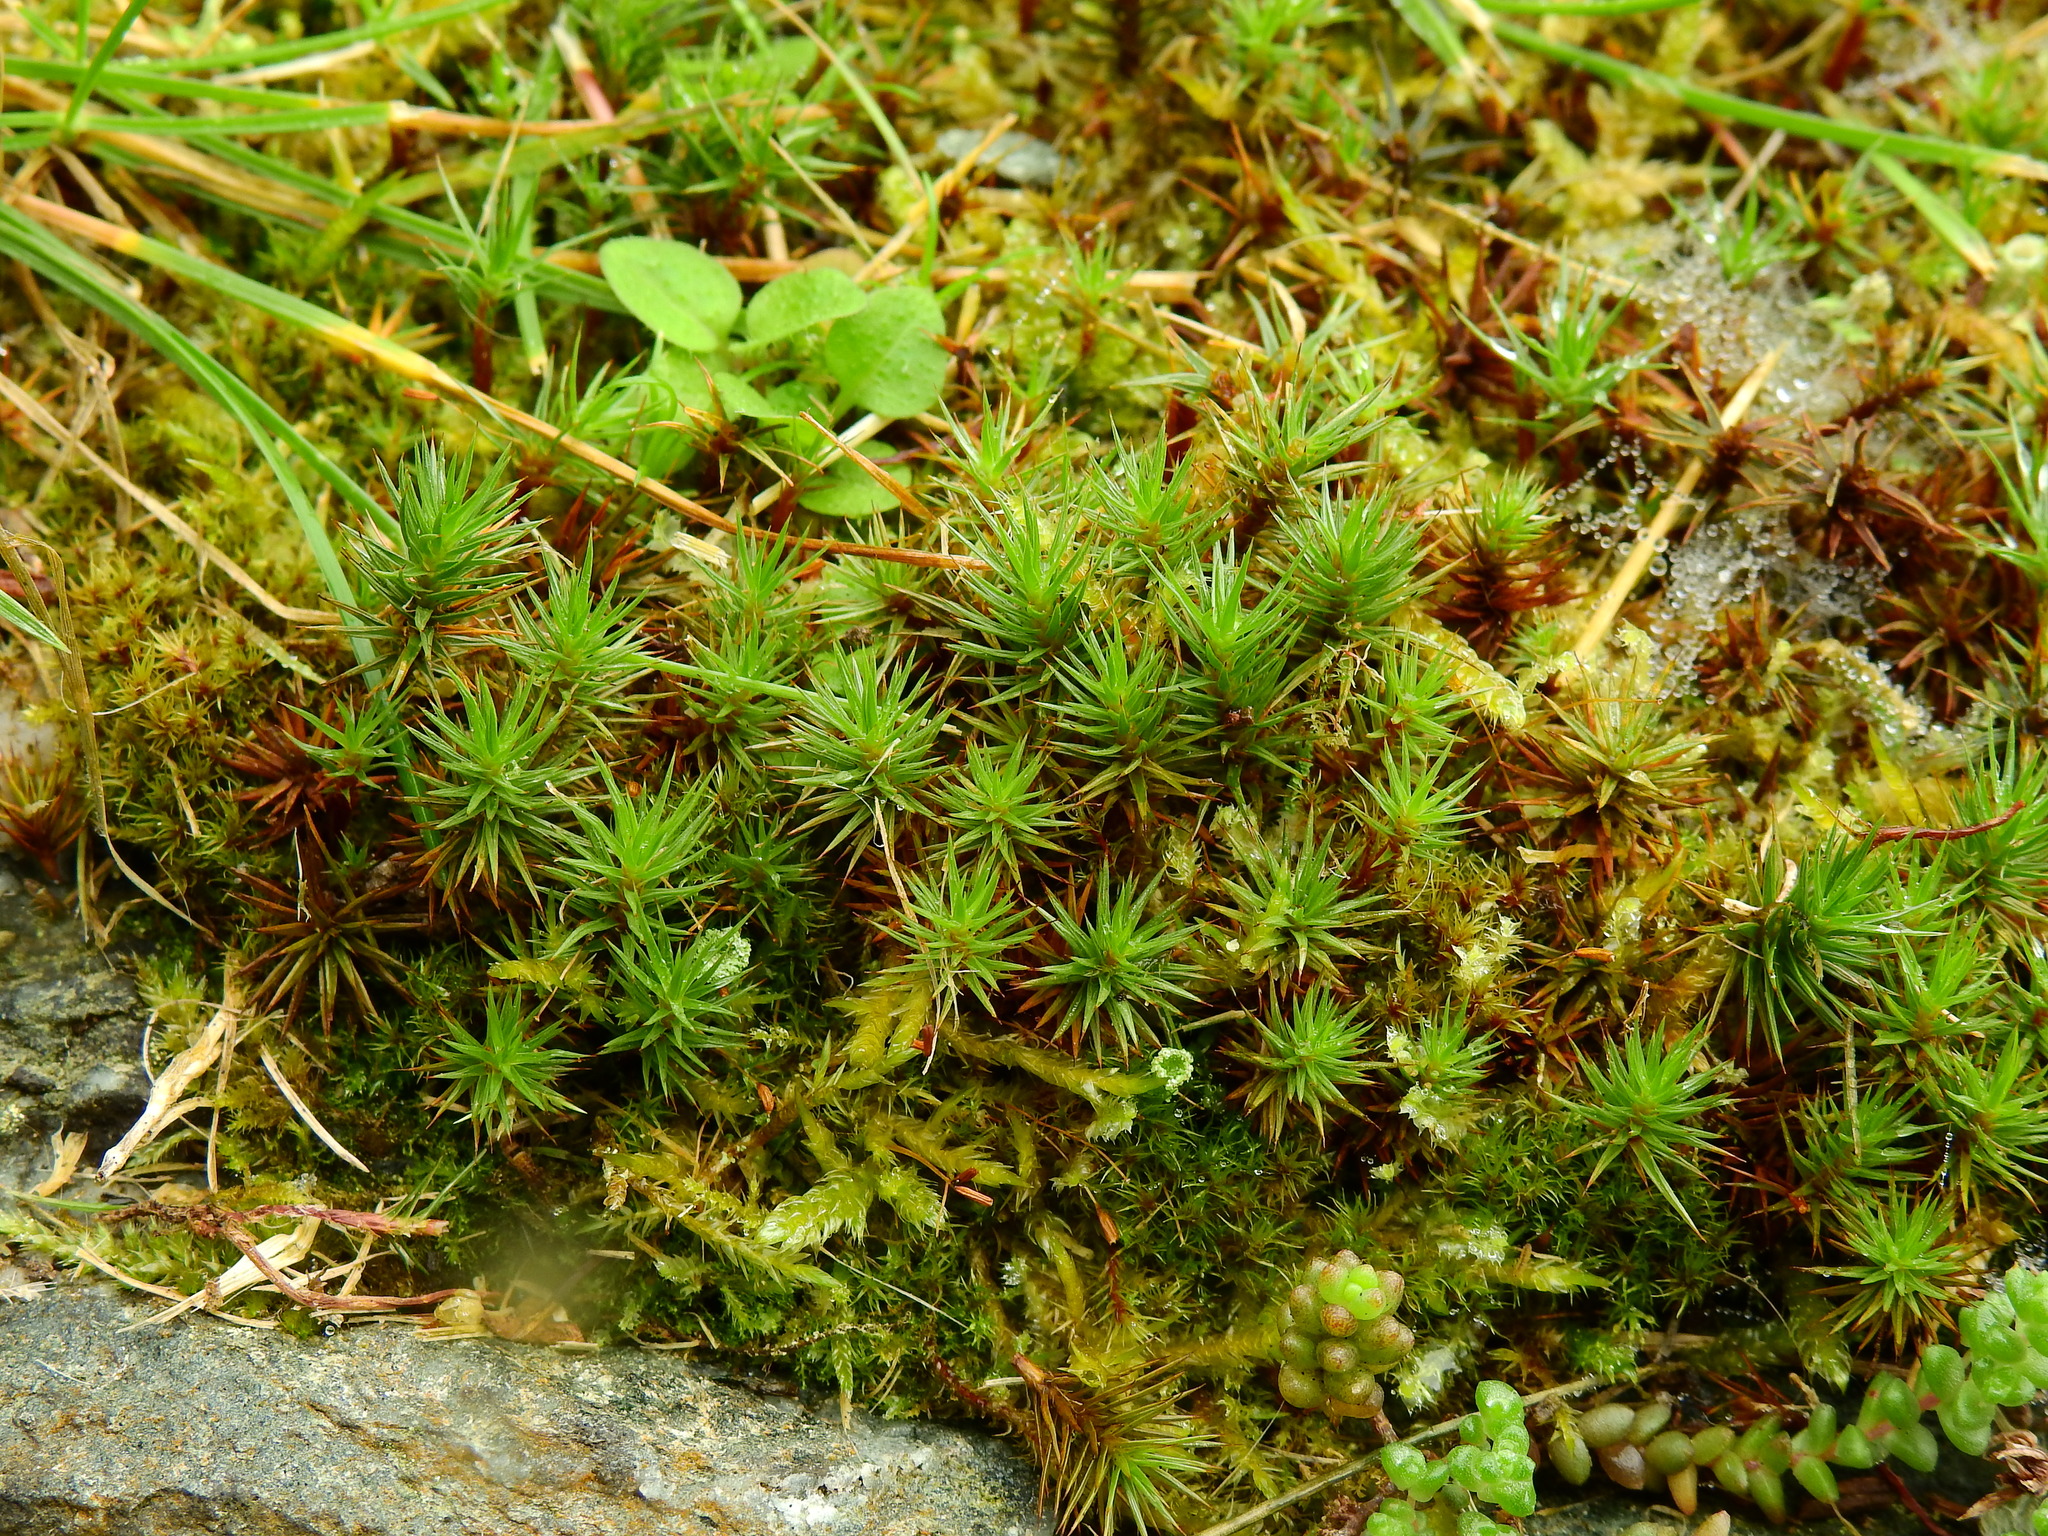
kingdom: Plantae
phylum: Bryophyta
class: Polytrichopsida
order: Polytrichales
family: Polytrichaceae
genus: Polytrichum
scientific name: Polytrichum juniperinum
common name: Juniper haircap moss
